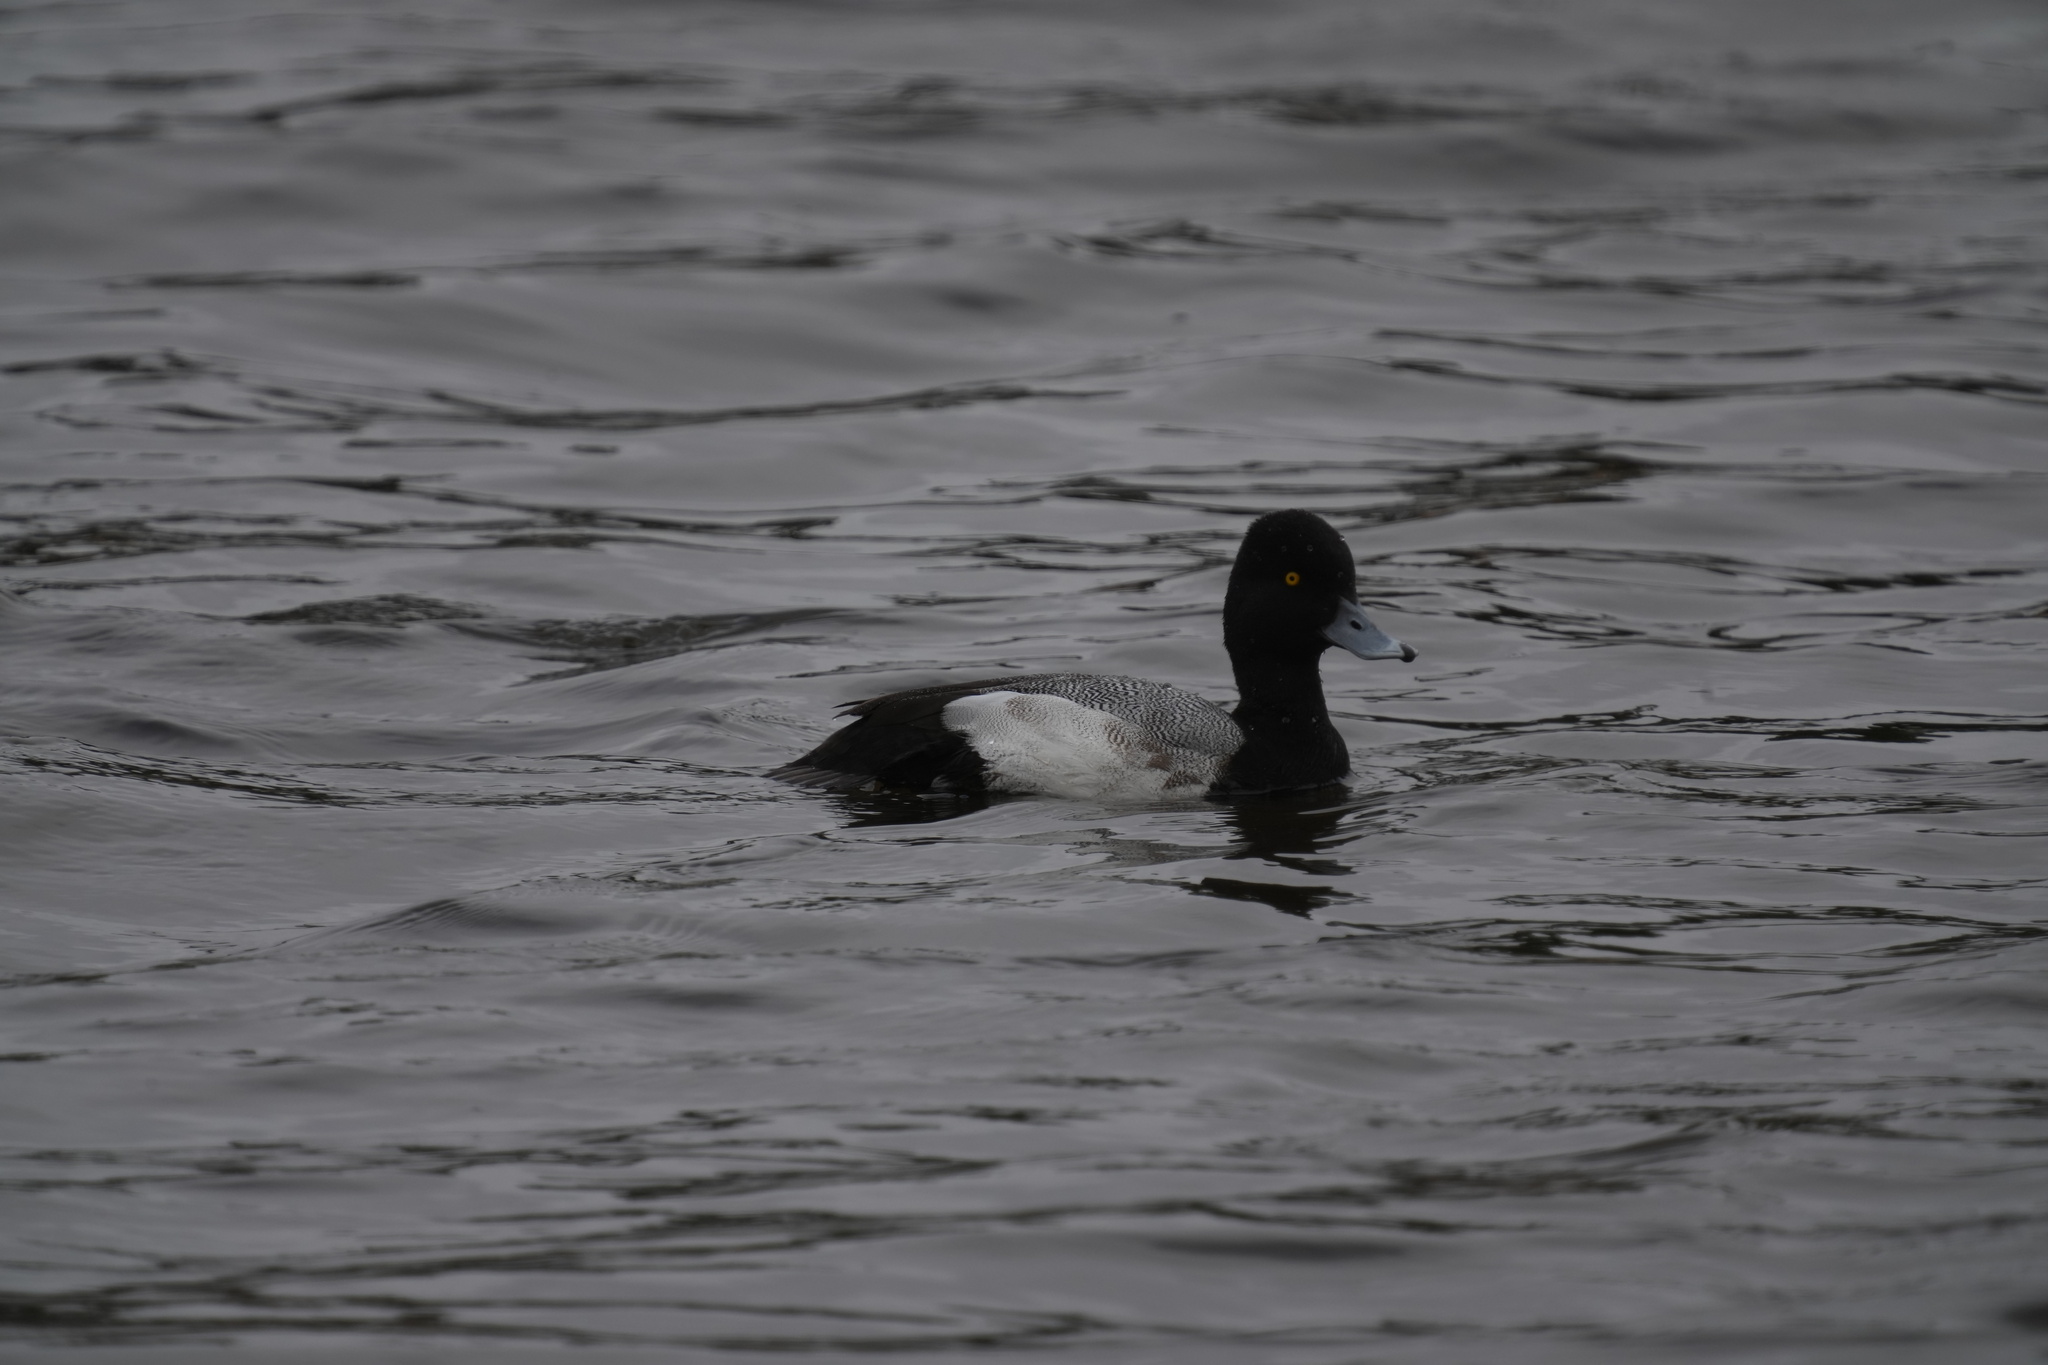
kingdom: Animalia
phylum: Chordata
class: Aves
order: Anseriformes
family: Anatidae
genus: Aythya
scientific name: Aythya affinis
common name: Lesser scaup
